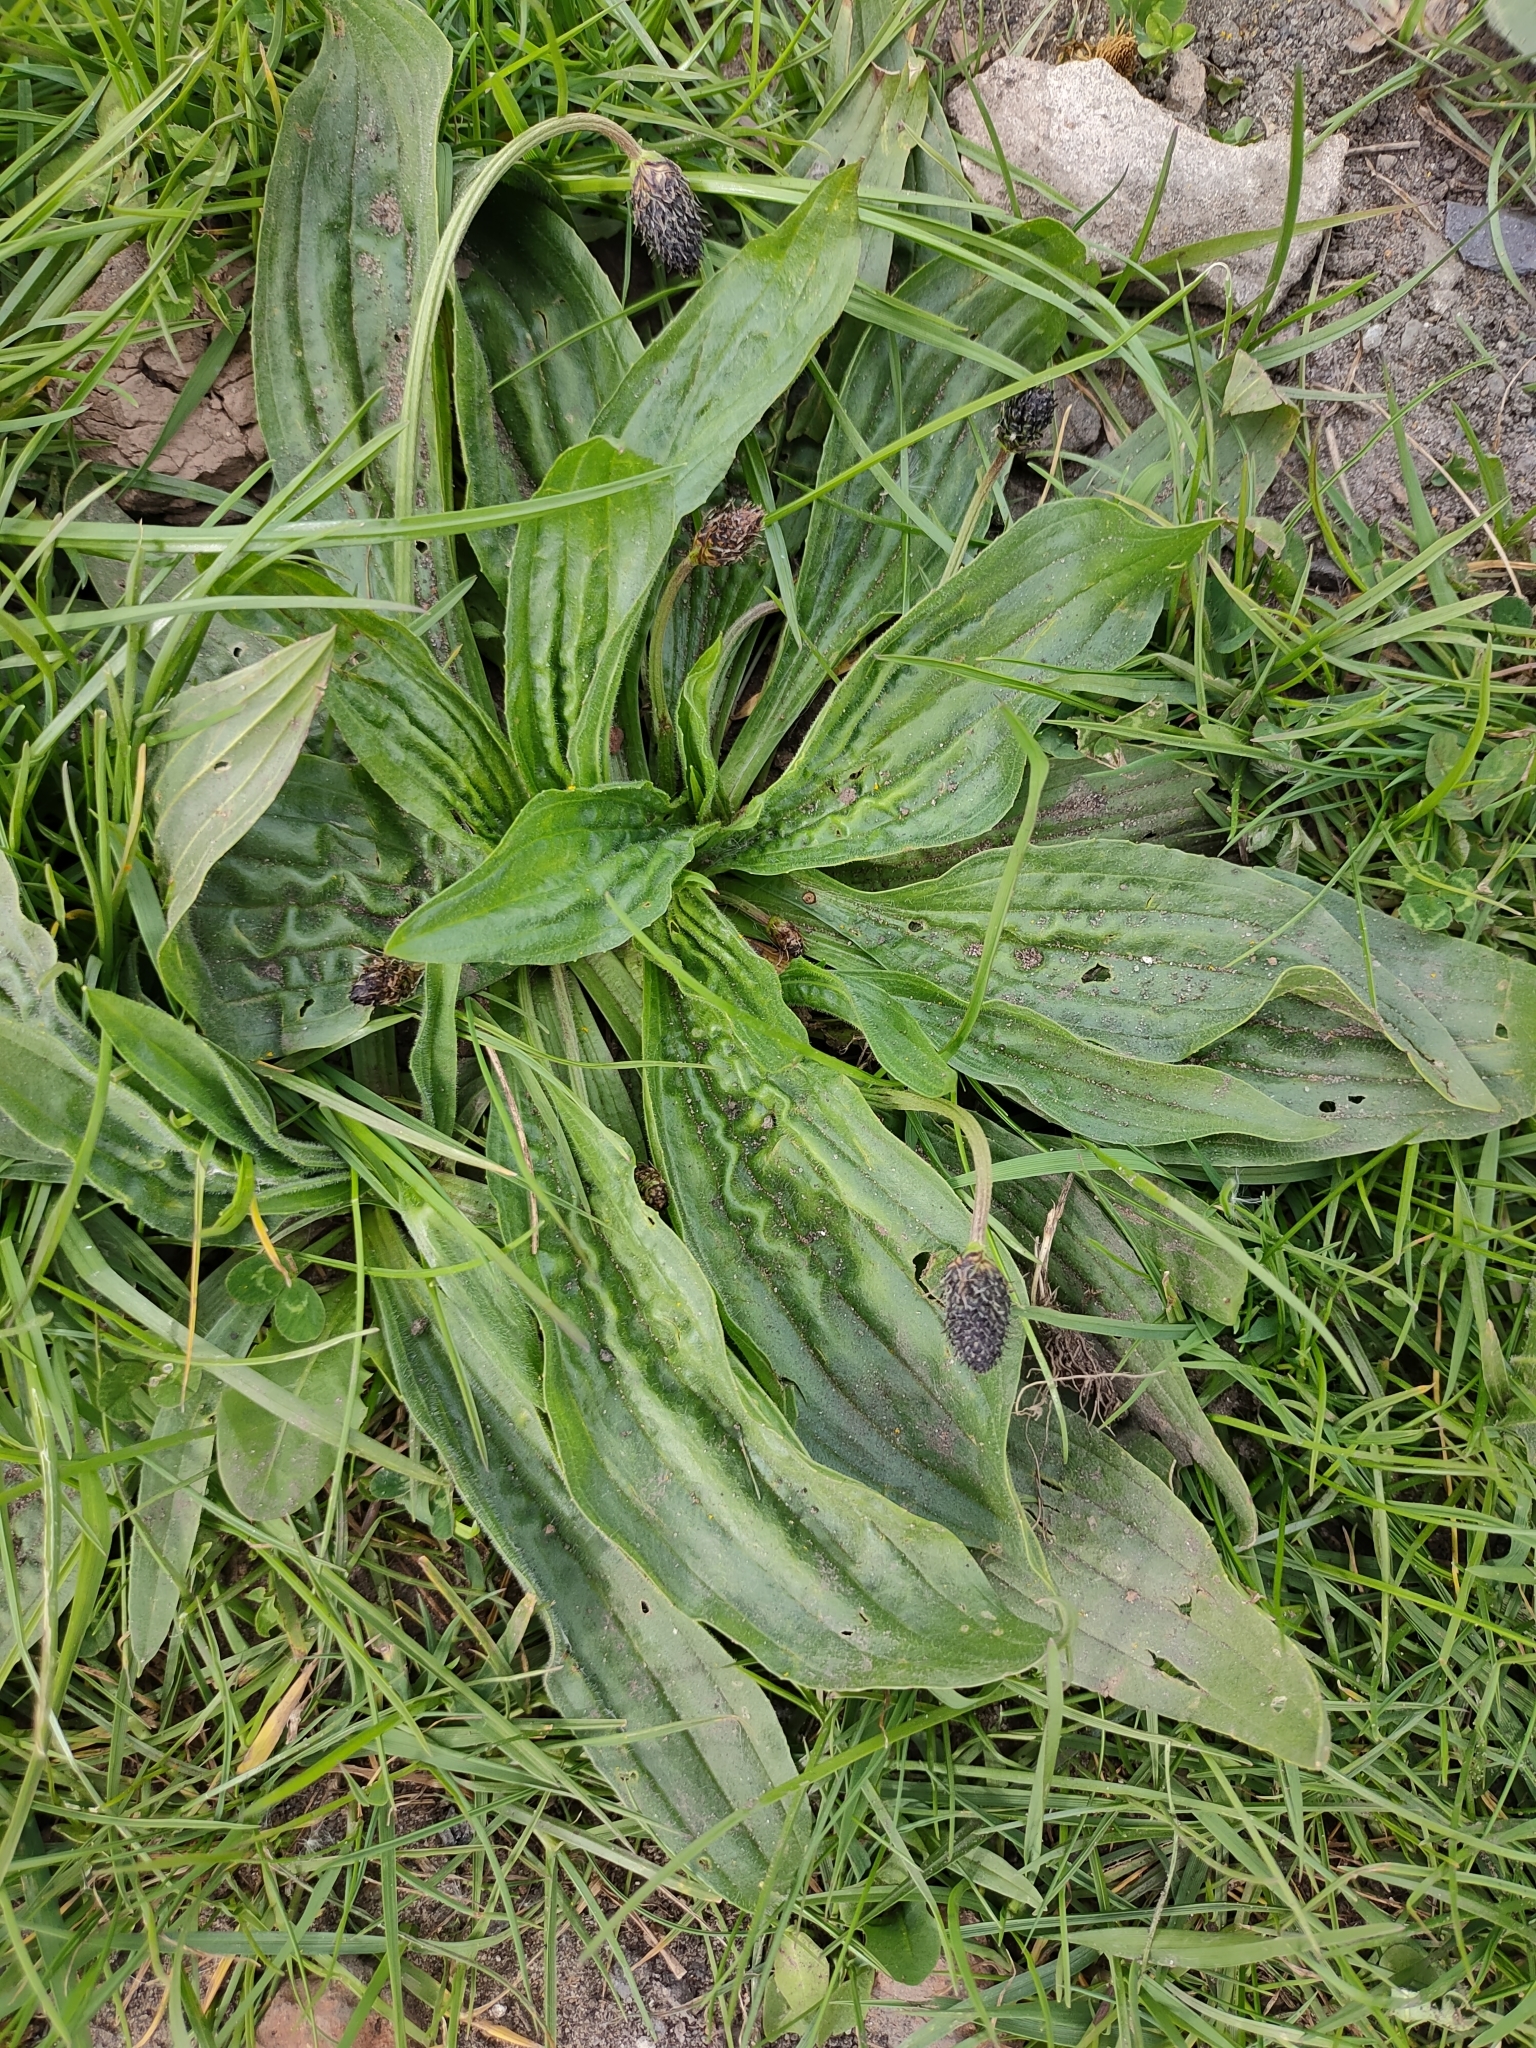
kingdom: Plantae
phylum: Tracheophyta
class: Magnoliopsida
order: Lamiales
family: Plantaginaceae
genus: Plantago
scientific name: Plantago lanceolata
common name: Ribwort plantain
